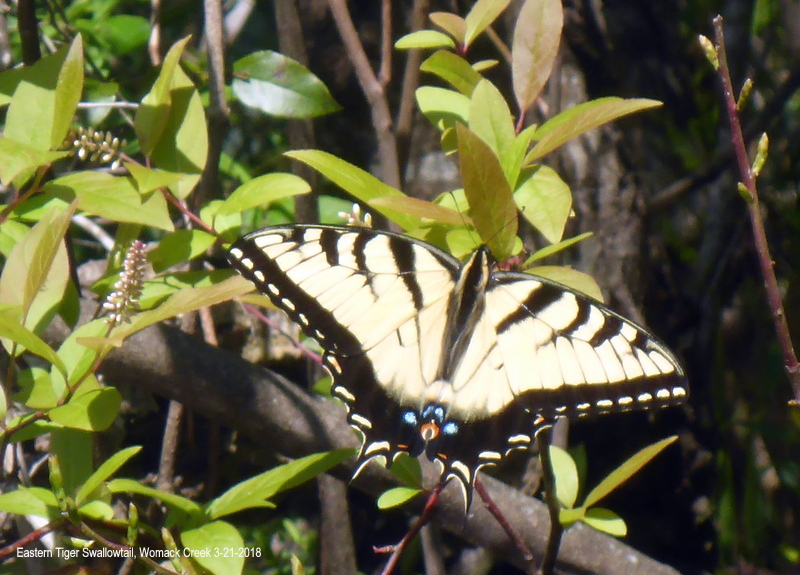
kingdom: Animalia
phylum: Arthropoda
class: Insecta
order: Lepidoptera
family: Papilionidae
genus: Papilio
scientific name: Papilio glaucus
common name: Tiger swallowtail
